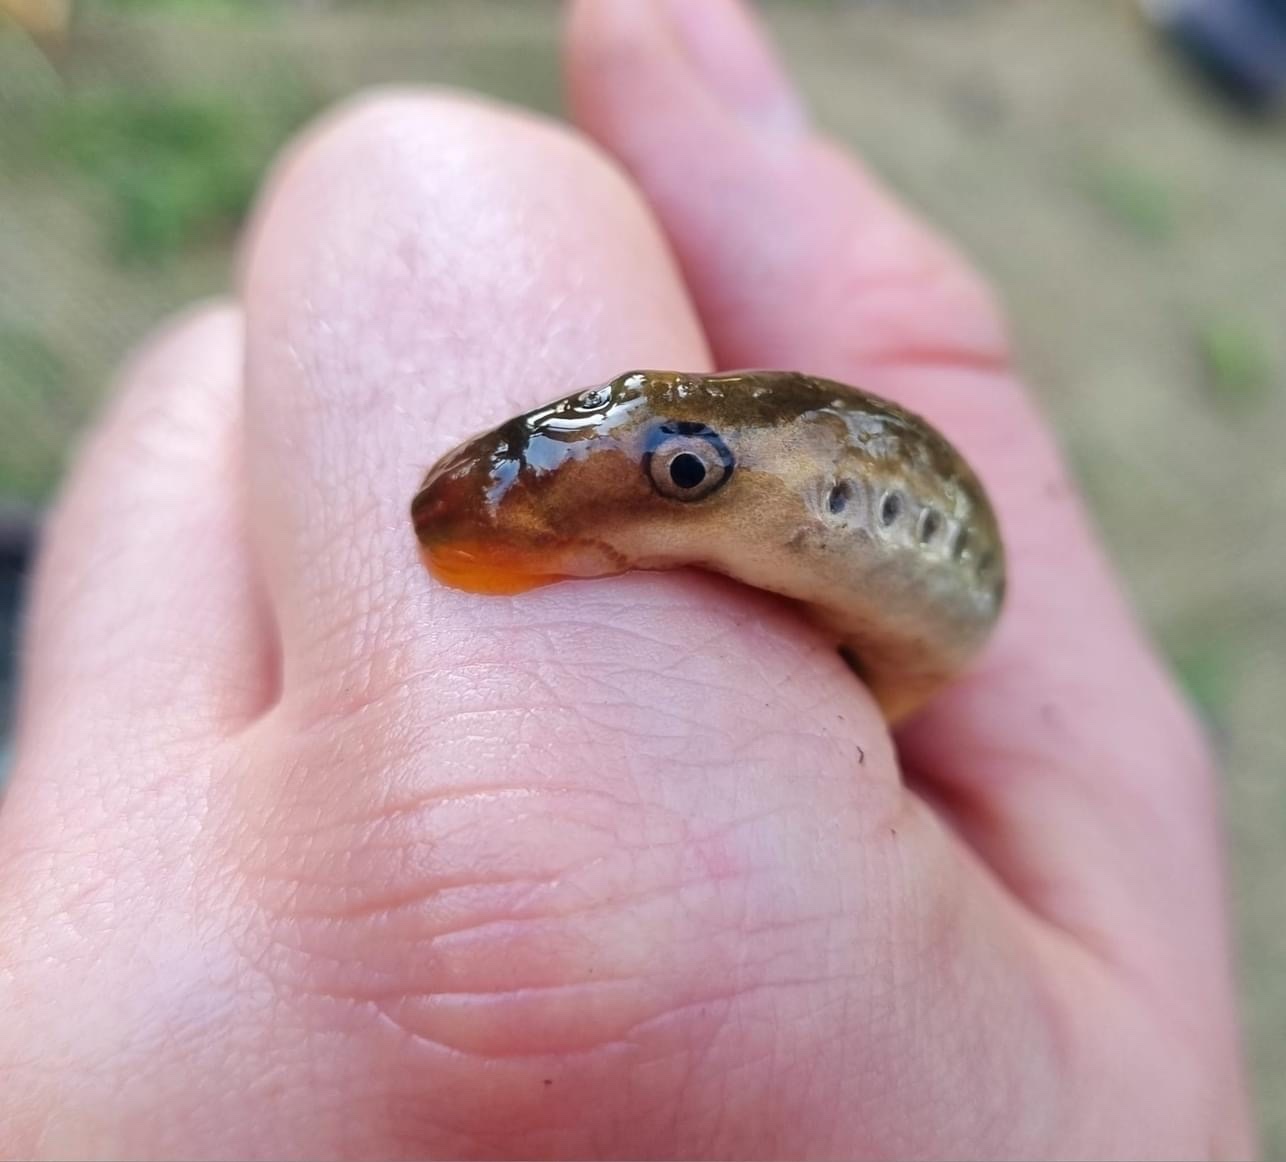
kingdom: Animalia
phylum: Chordata
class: Petromyzonti
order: Petromyzontiformes
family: Petromyzontidae
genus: Lampetra
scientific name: Lampetra planeri
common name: Brook lamprey
